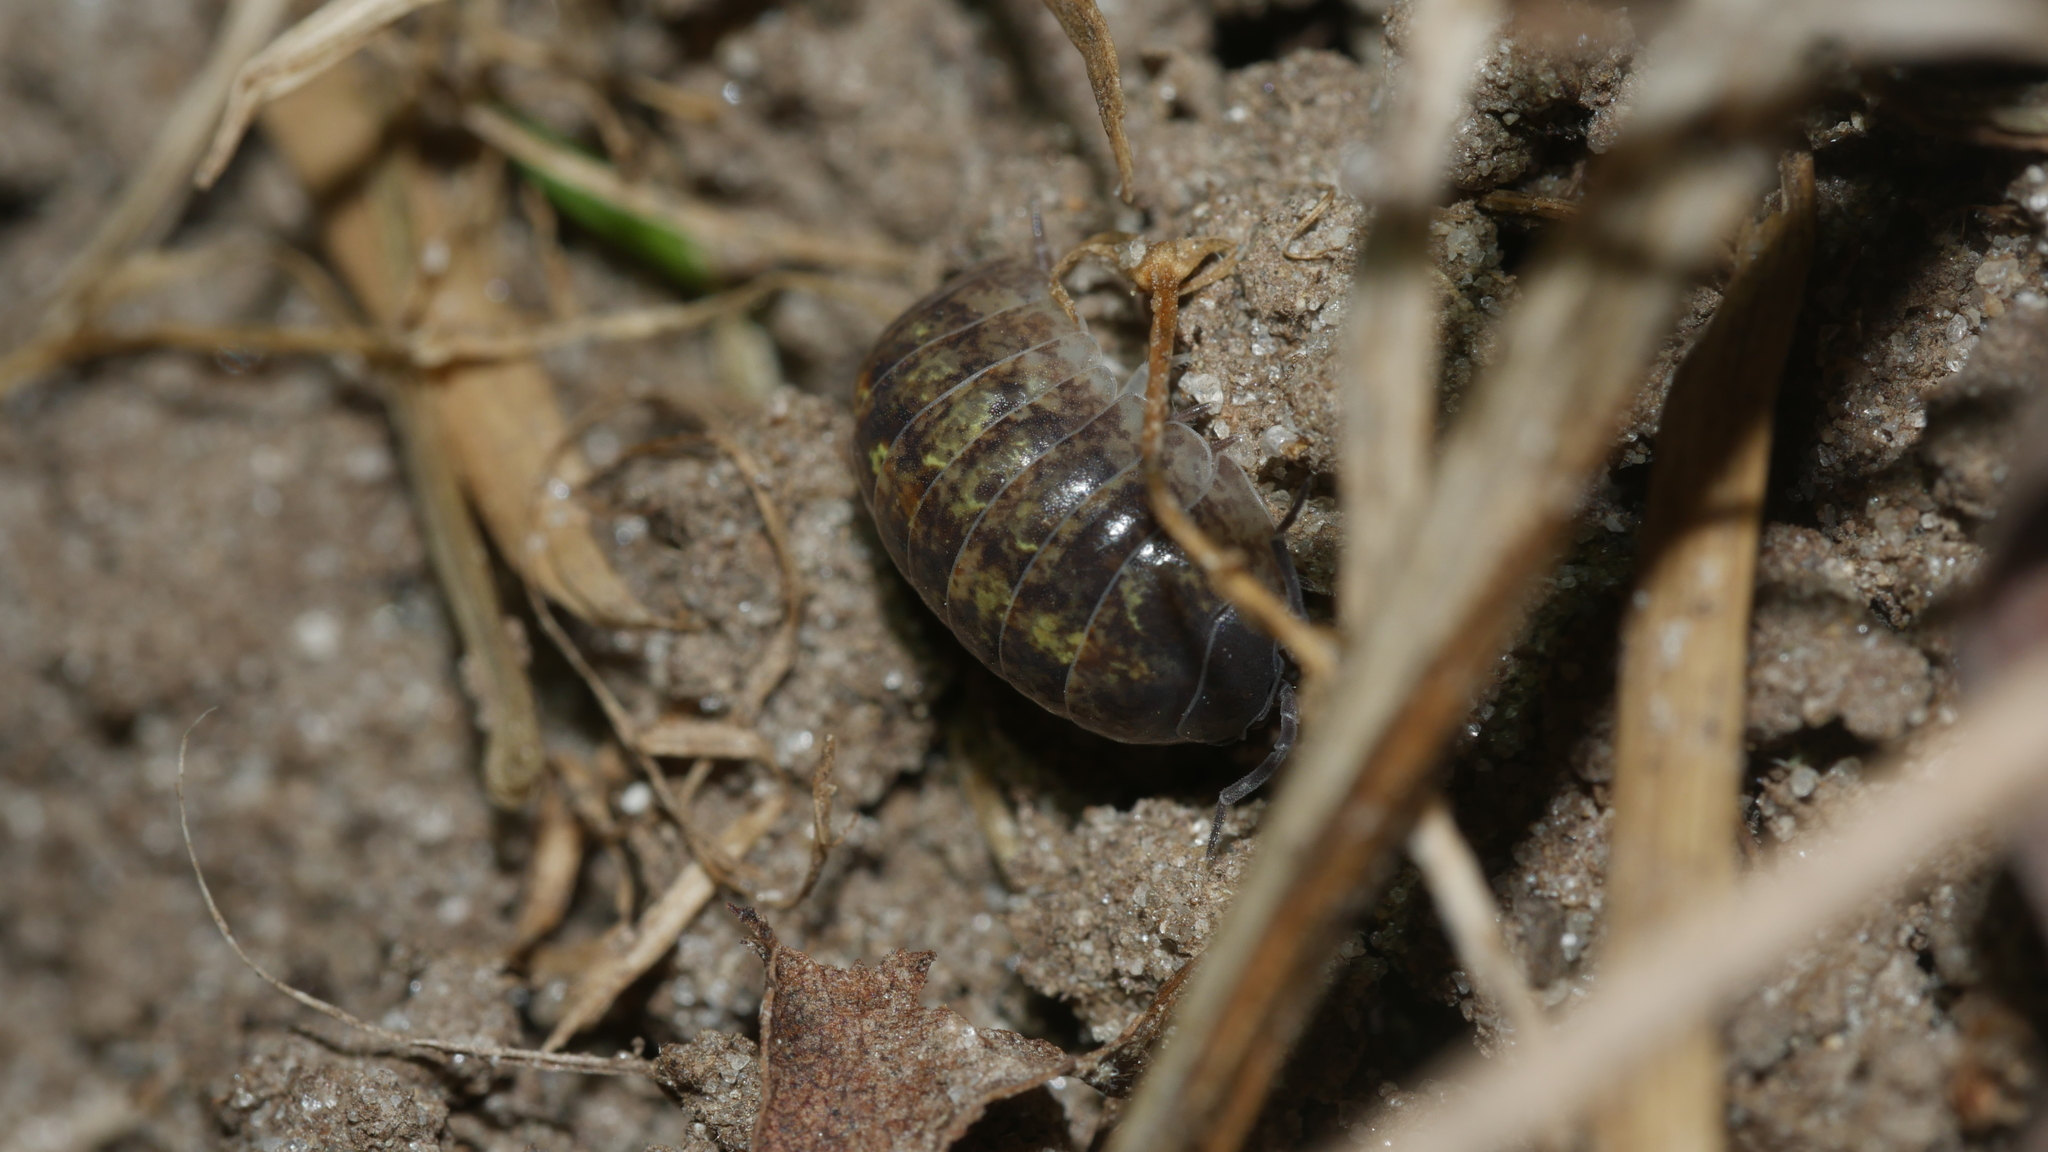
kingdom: Animalia
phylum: Arthropoda
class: Malacostraca
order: Isopoda
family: Armadillidiidae
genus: Armadillidium
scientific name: Armadillidium vulgare
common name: Common pill woodlouse
